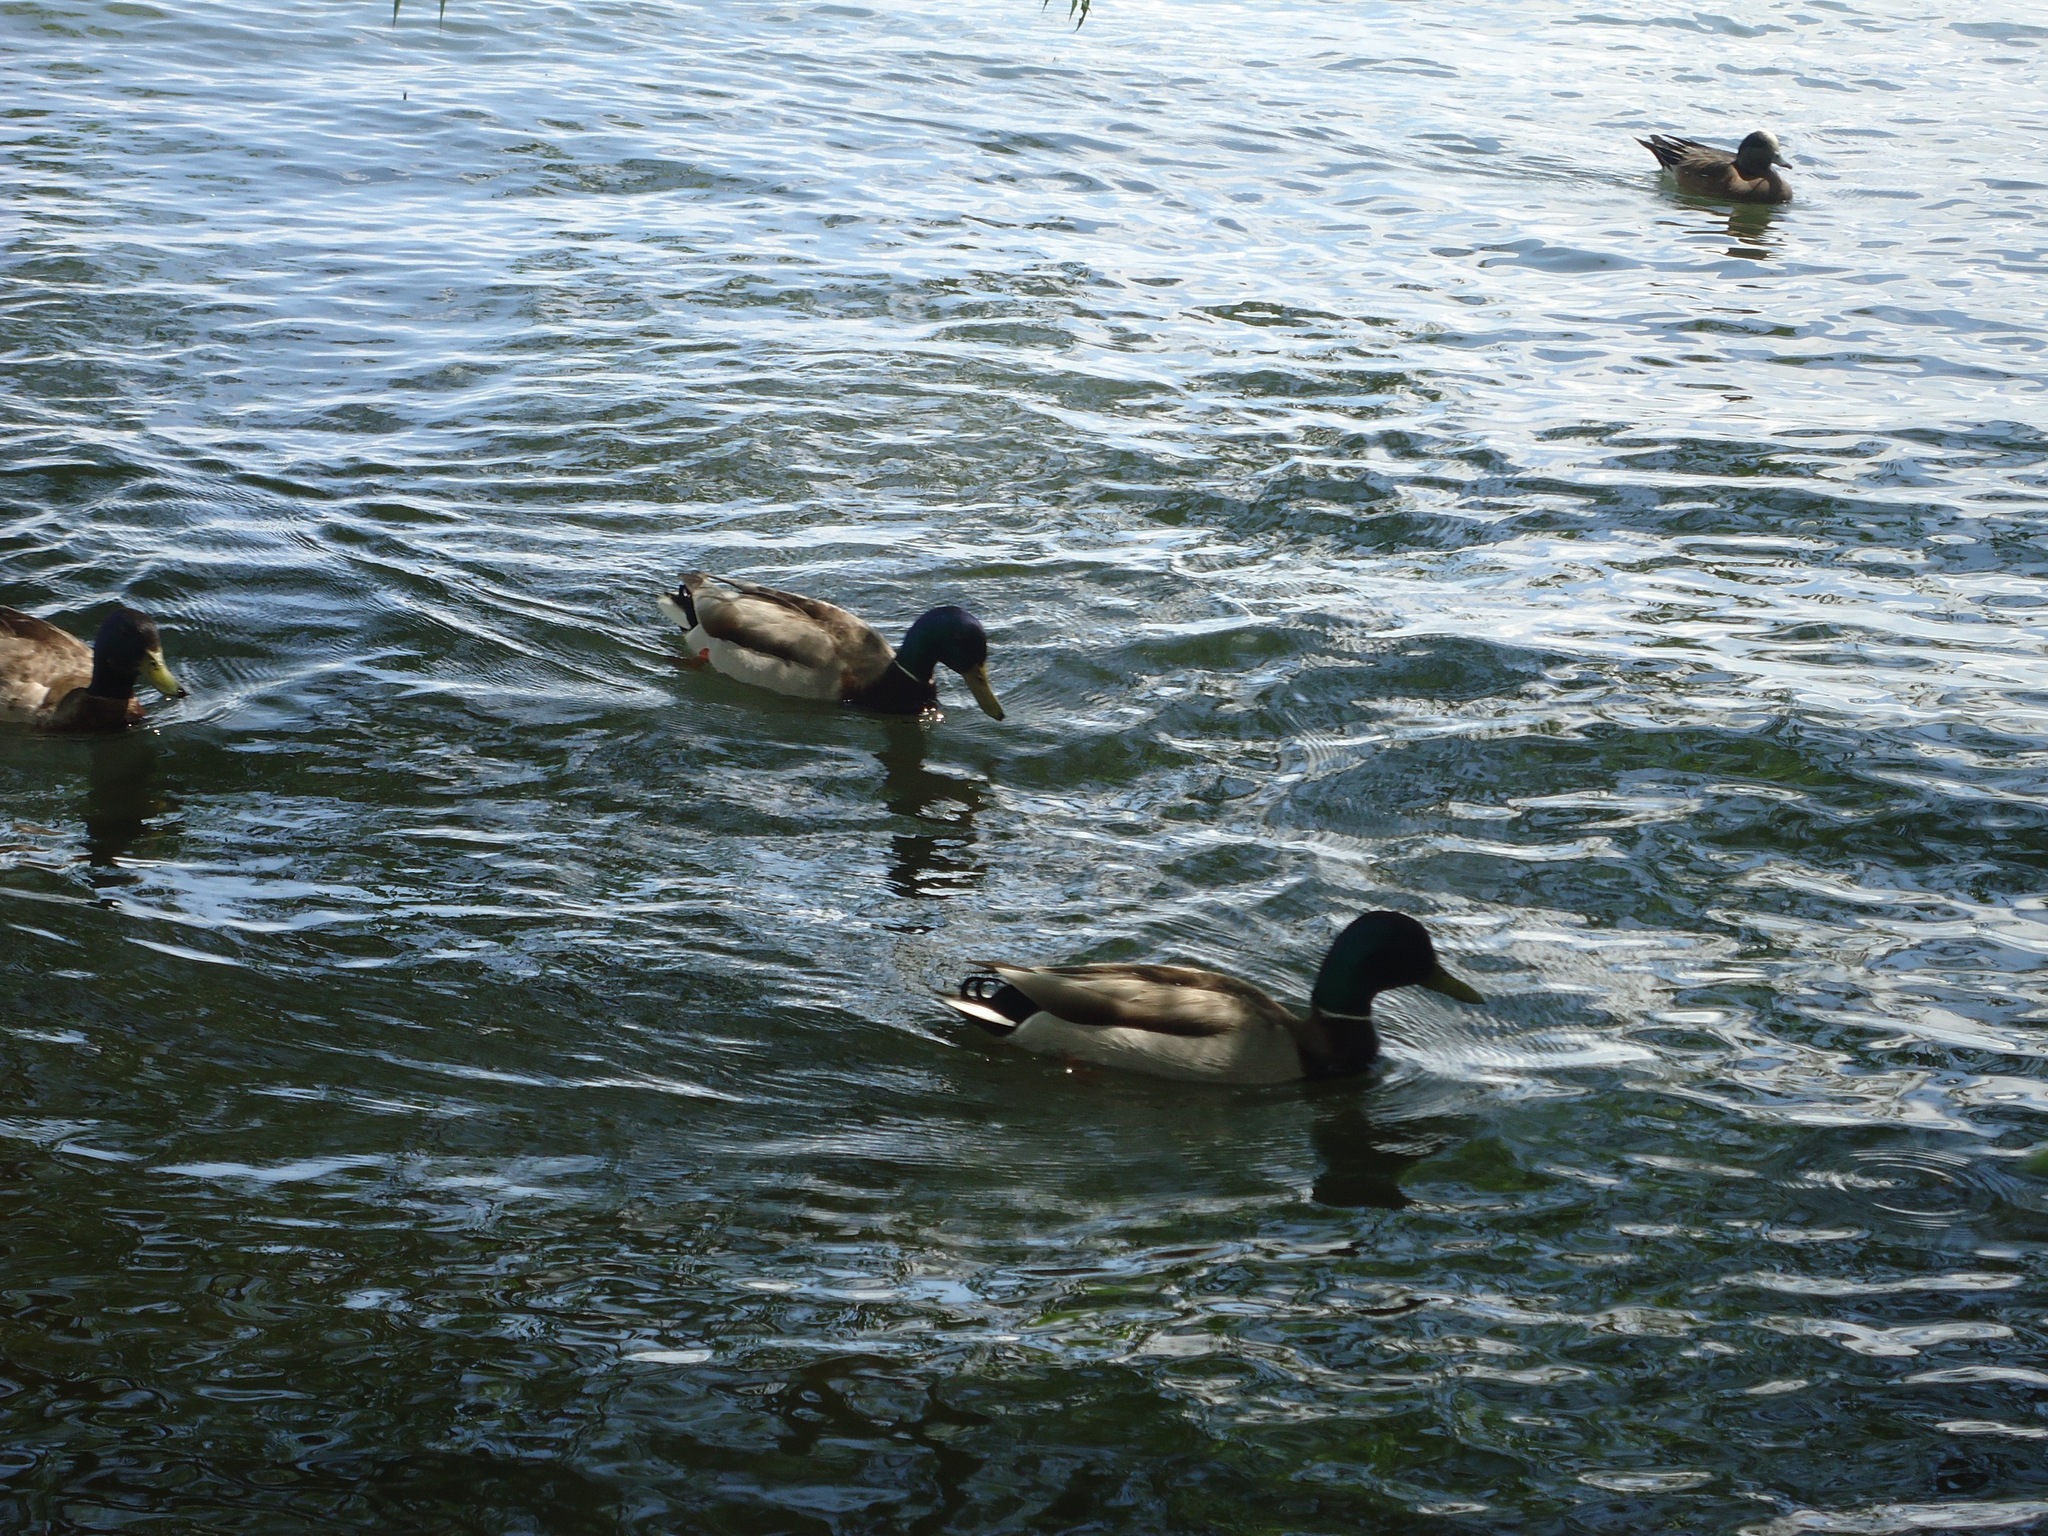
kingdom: Animalia
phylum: Chordata
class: Aves
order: Anseriformes
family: Anatidae
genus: Anas
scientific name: Anas platyrhynchos
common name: Mallard
